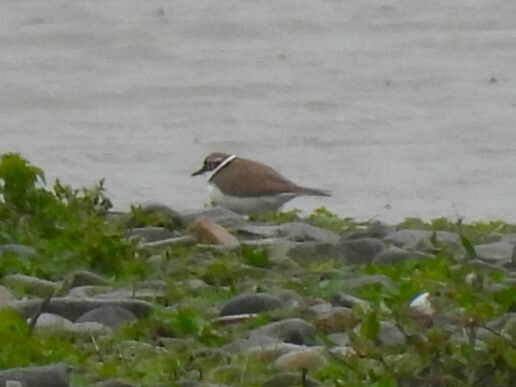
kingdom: Animalia
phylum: Chordata
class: Aves
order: Charadriiformes
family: Charadriidae
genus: Charadrius
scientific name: Charadrius dubius
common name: Little ringed plover
